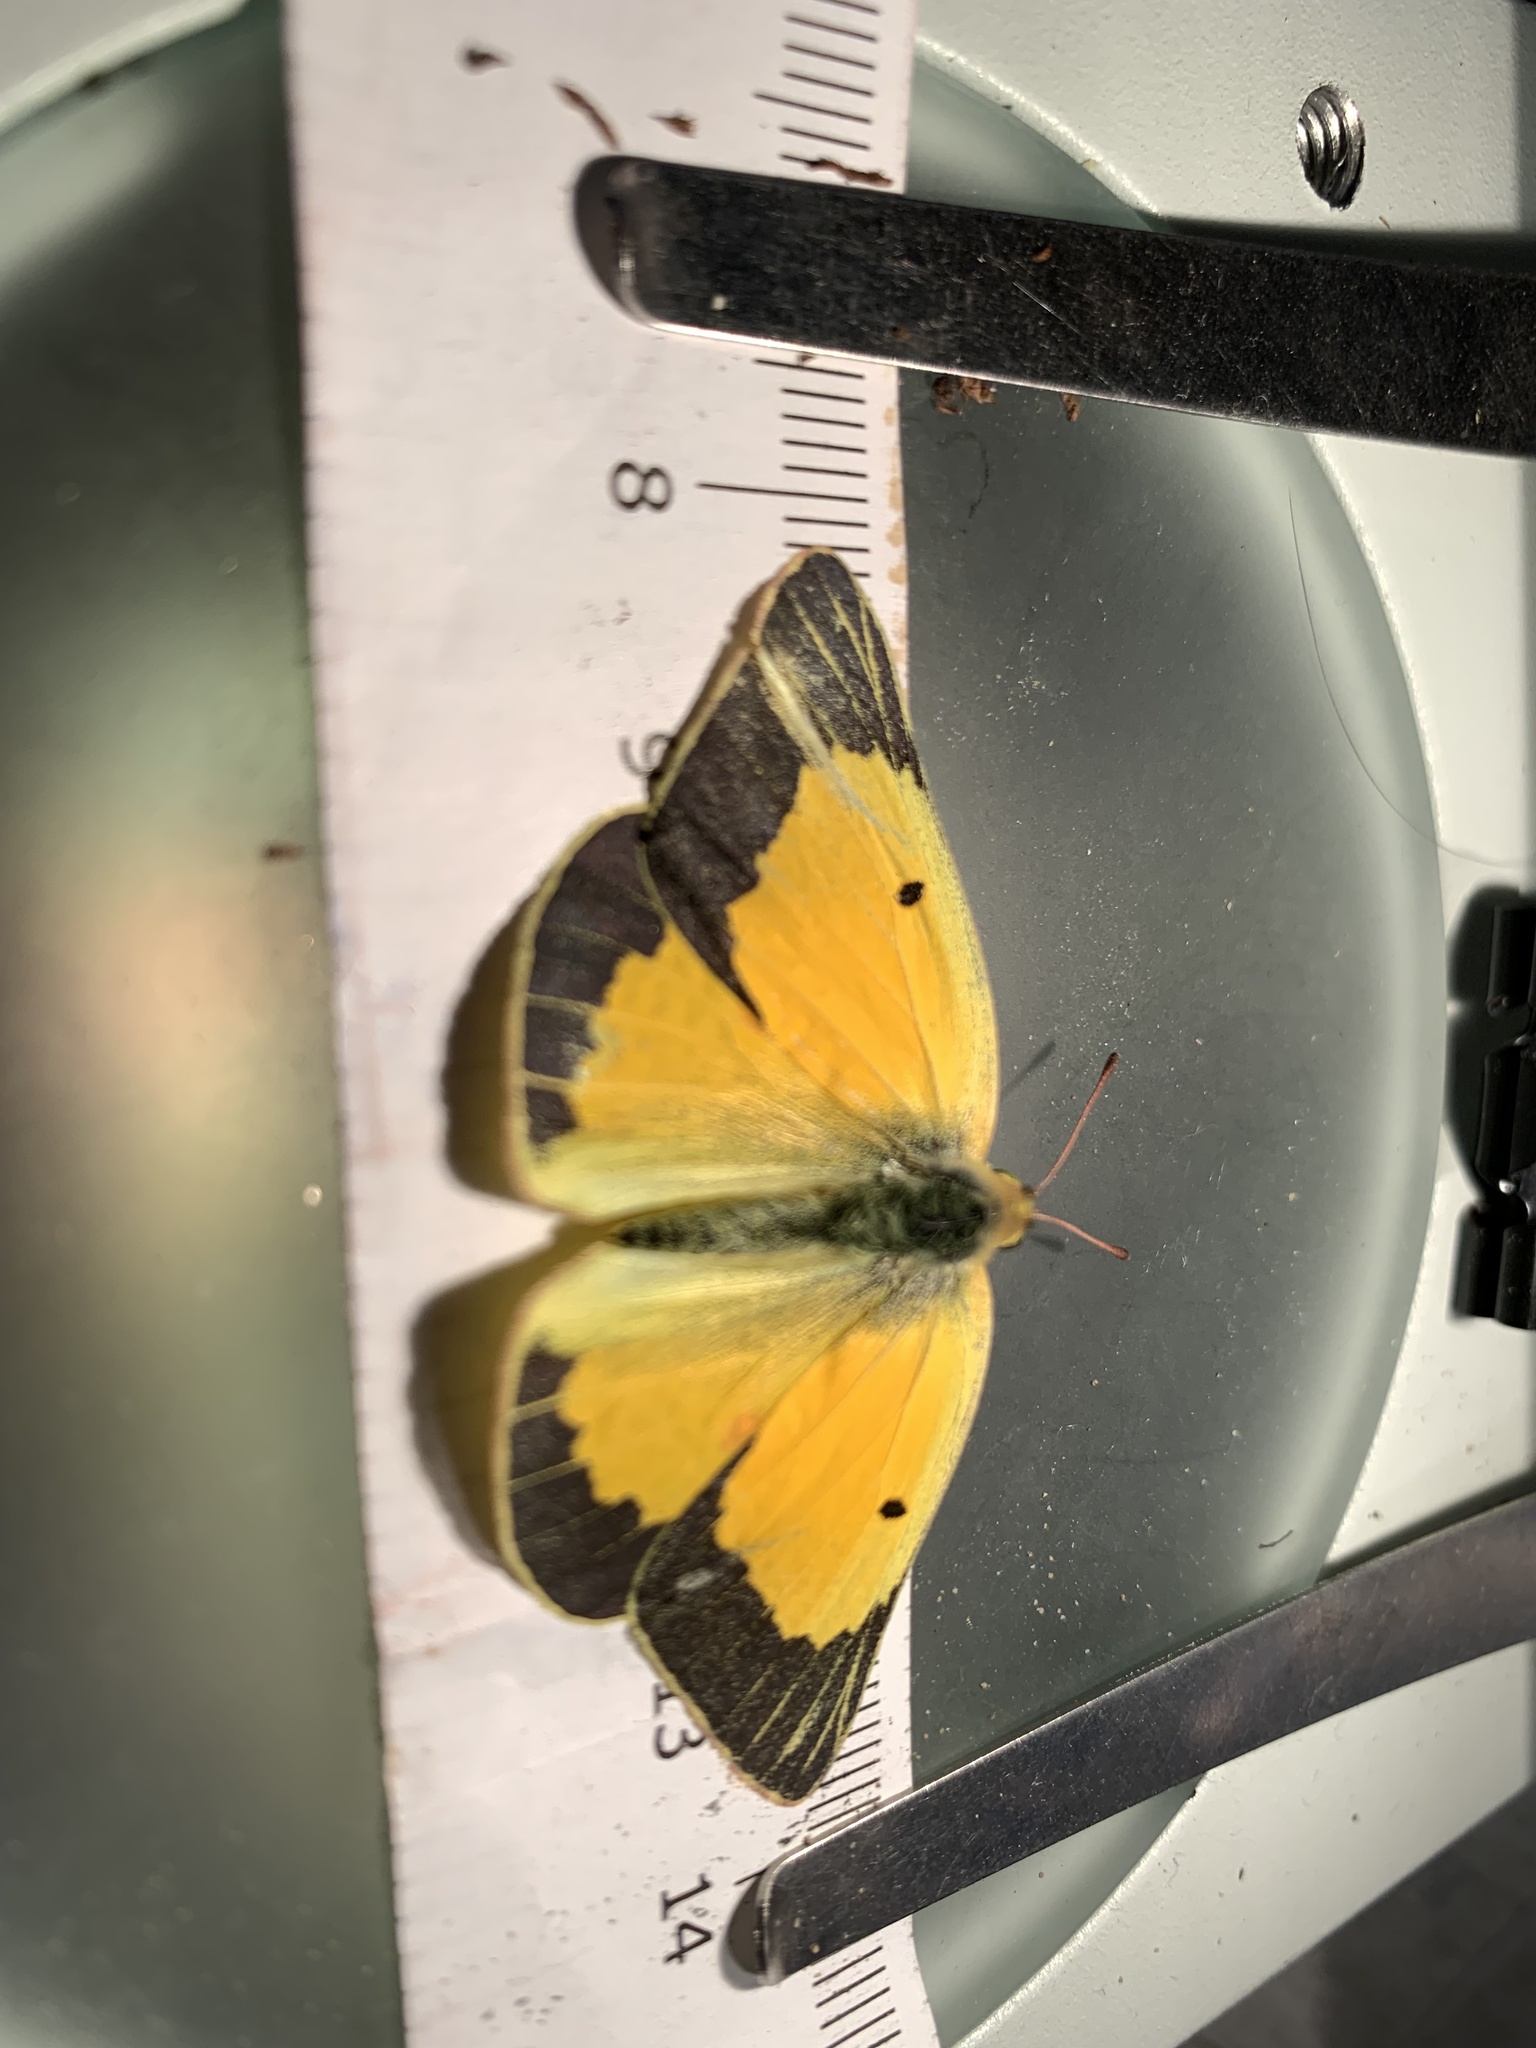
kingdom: Animalia
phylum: Arthropoda
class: Insecta
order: Lepidoptera
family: Pieridae
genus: Colias
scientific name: Colias eurytheme
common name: Alfalfa butterfly
